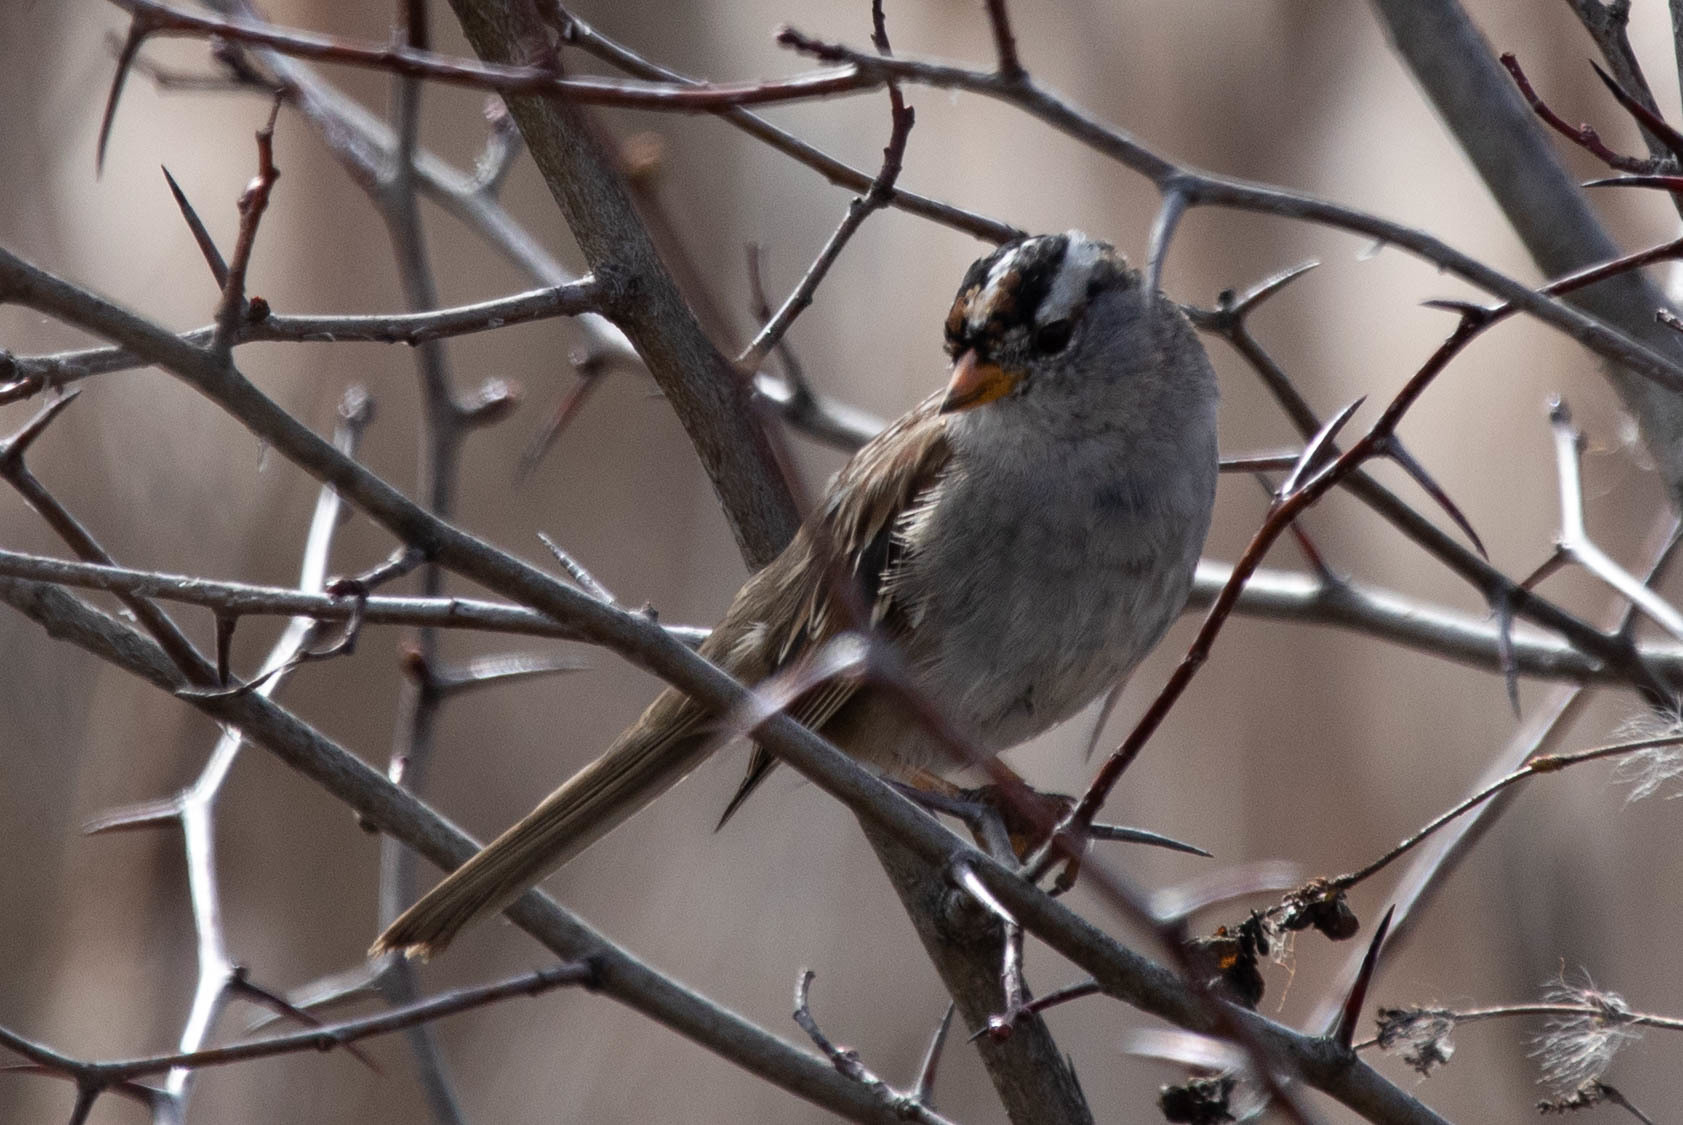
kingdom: Animalia
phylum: Chordata
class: Aves
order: Passeriformes
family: Passerellidae
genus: Zonotrichia
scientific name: Zonotrichia leucophrys
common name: White-crowned sparrow
